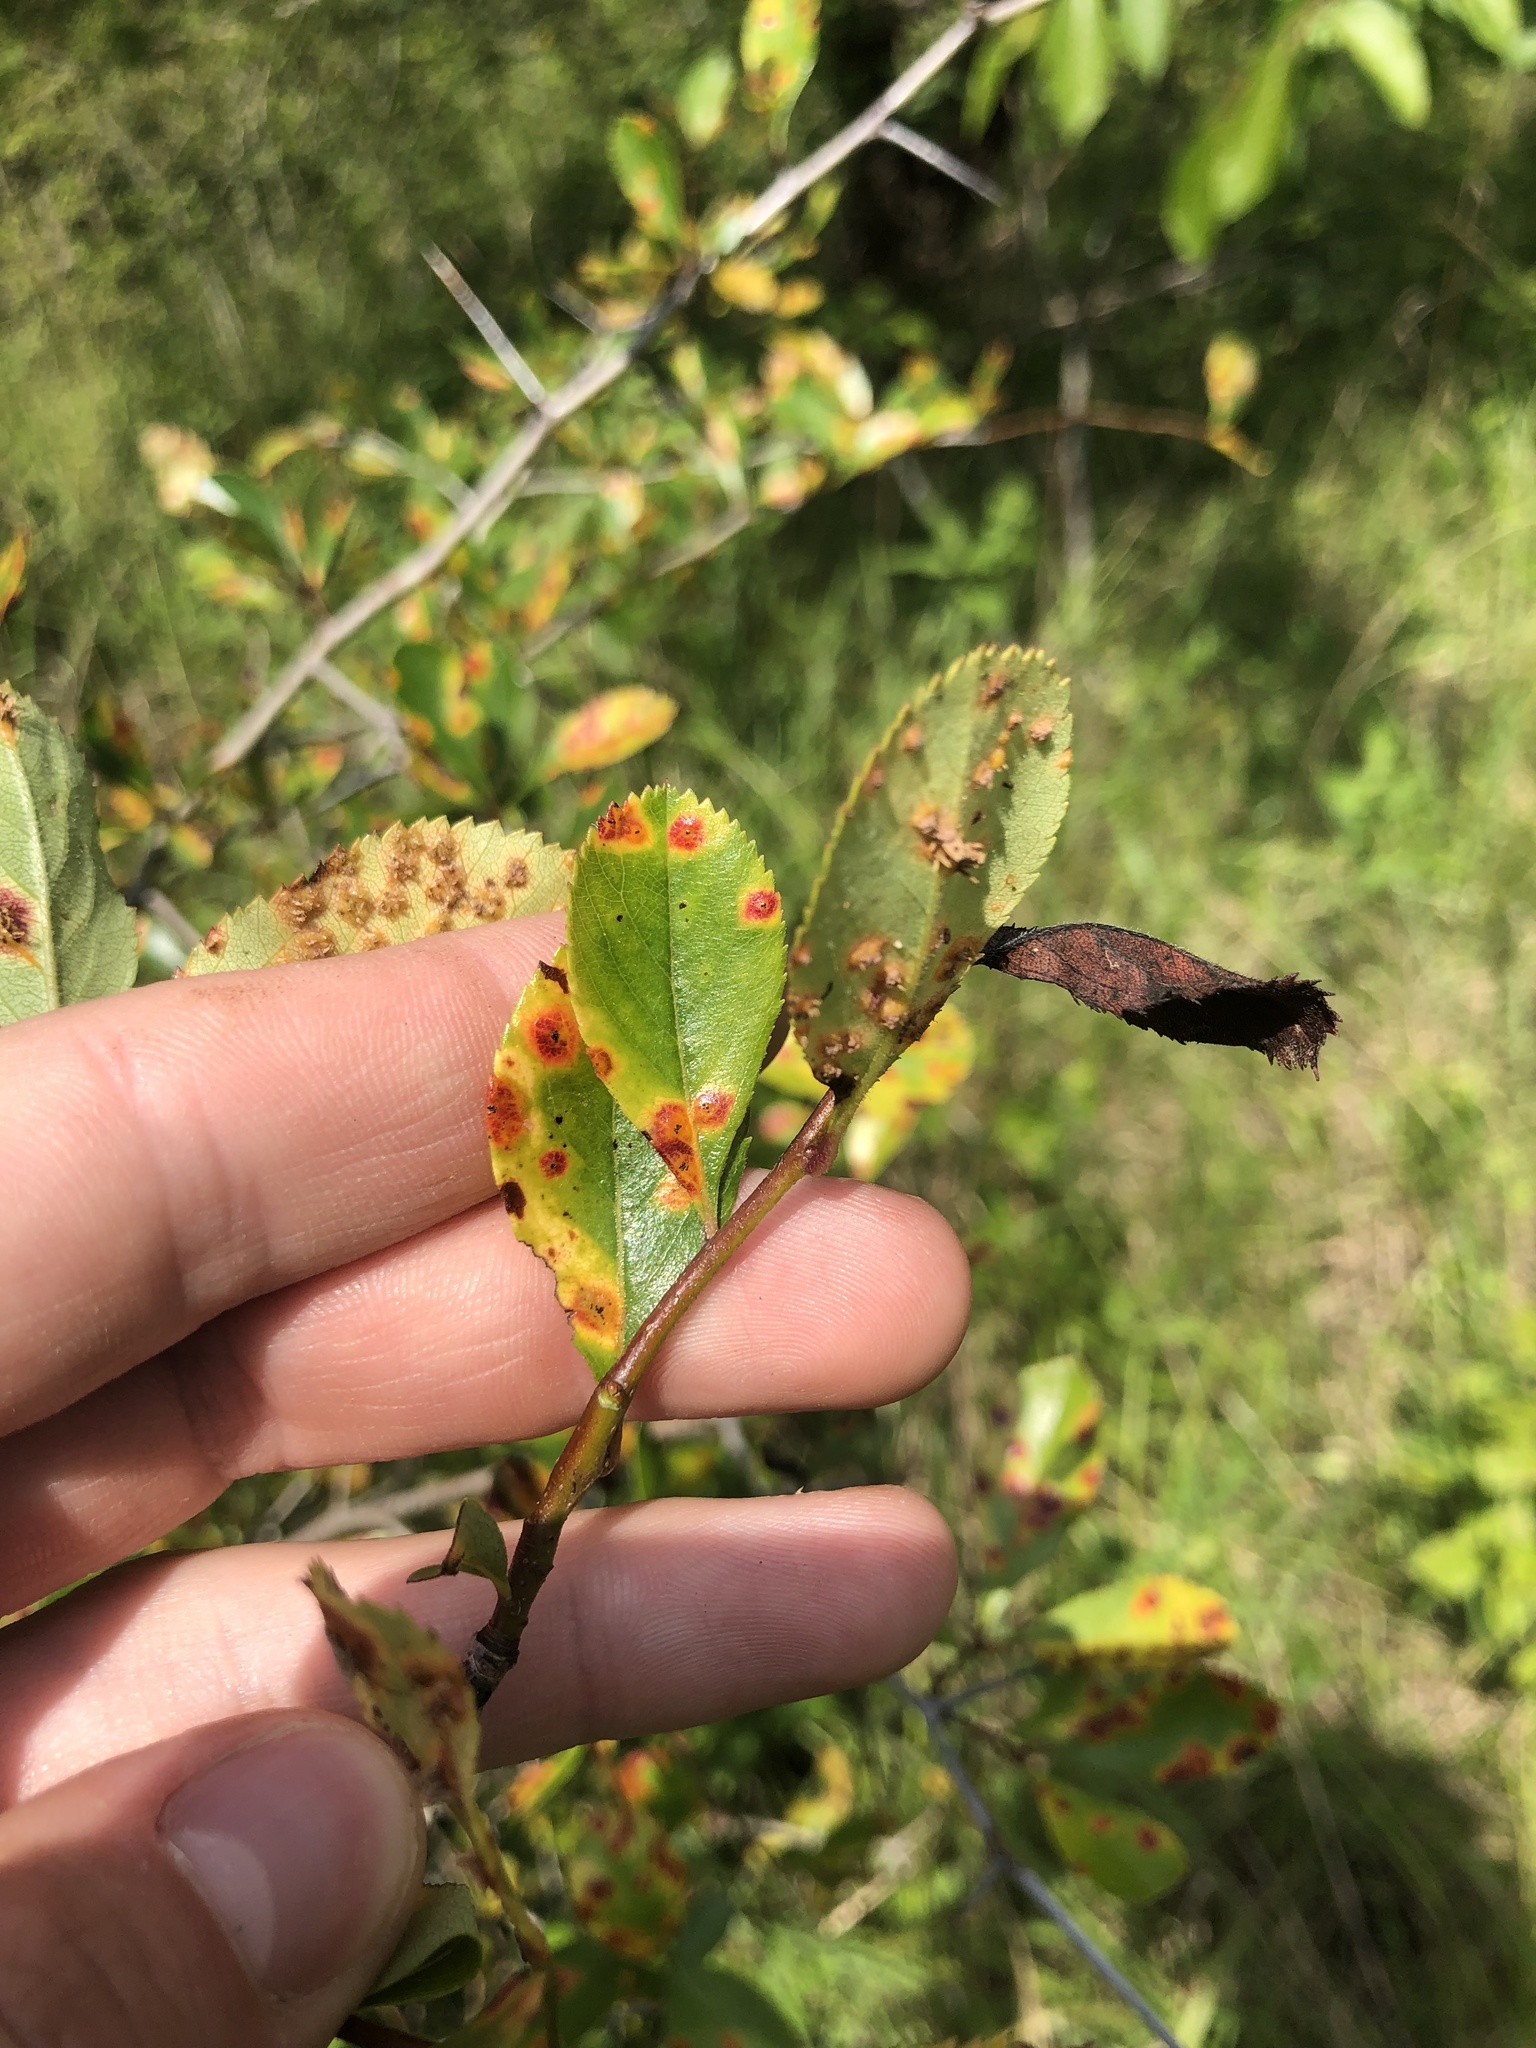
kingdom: Plantae
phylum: Tracheophyta
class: Magnoliopsida
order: Rosales
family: Rosaceae
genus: Crataegus
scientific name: Crataegus berberifolia
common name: Barberry hawthorn
